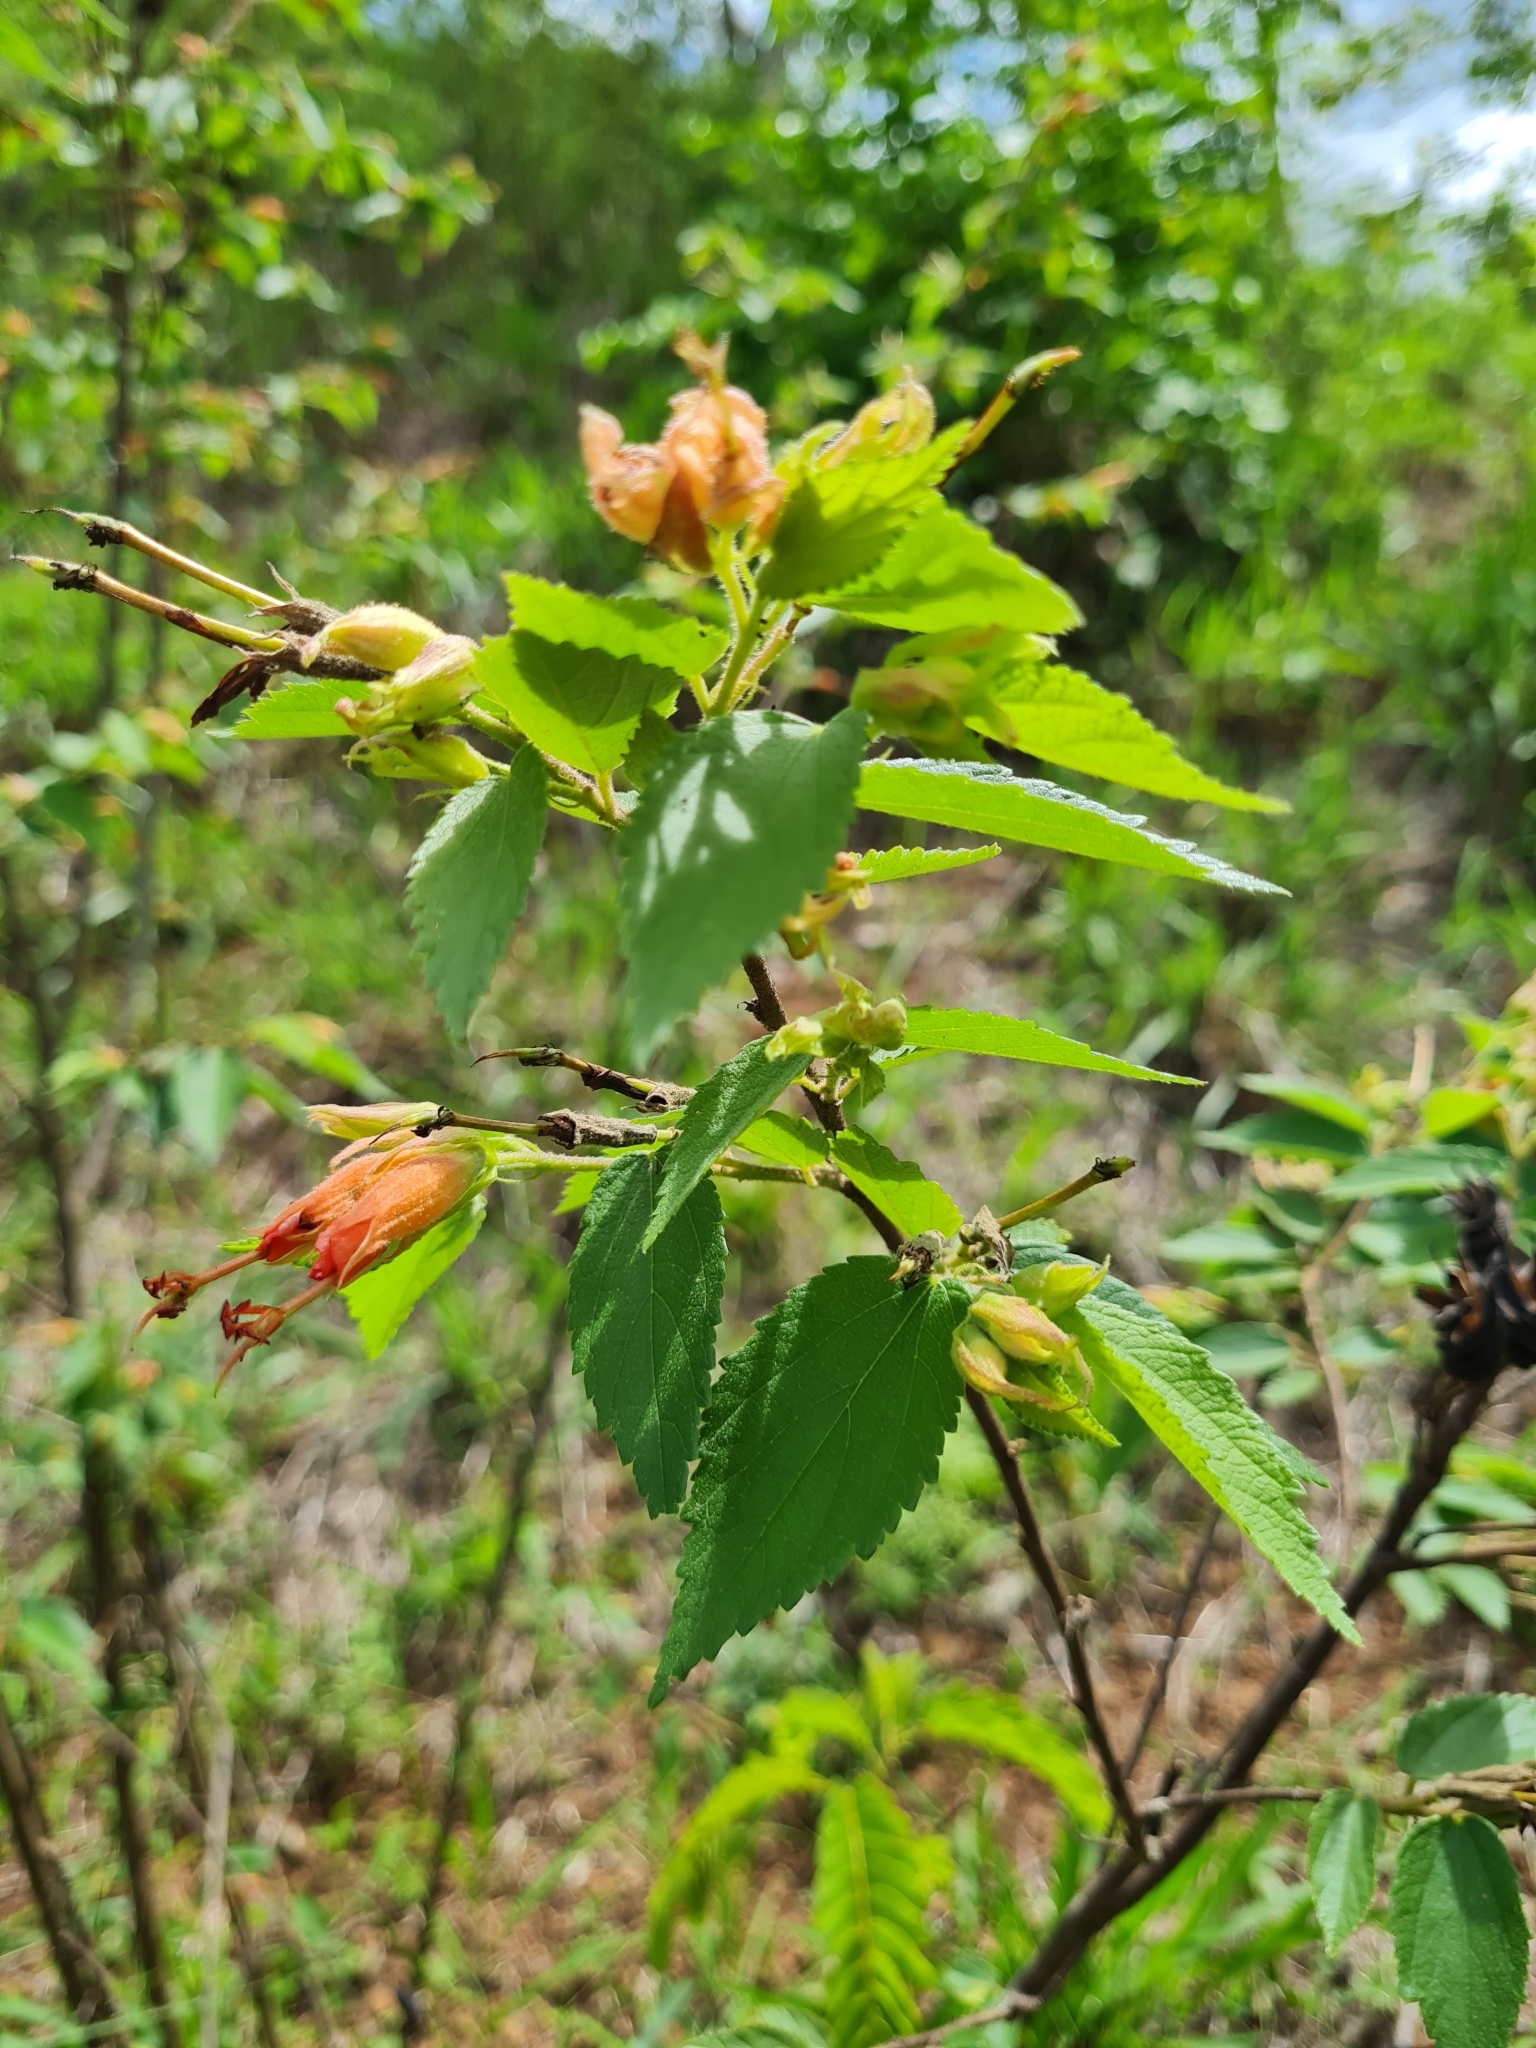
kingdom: Plantae
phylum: Tracheophyta
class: Magnoliopsida
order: Malvales
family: Malvaceae
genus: Helicteres
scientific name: Helicteres guazumifolia
